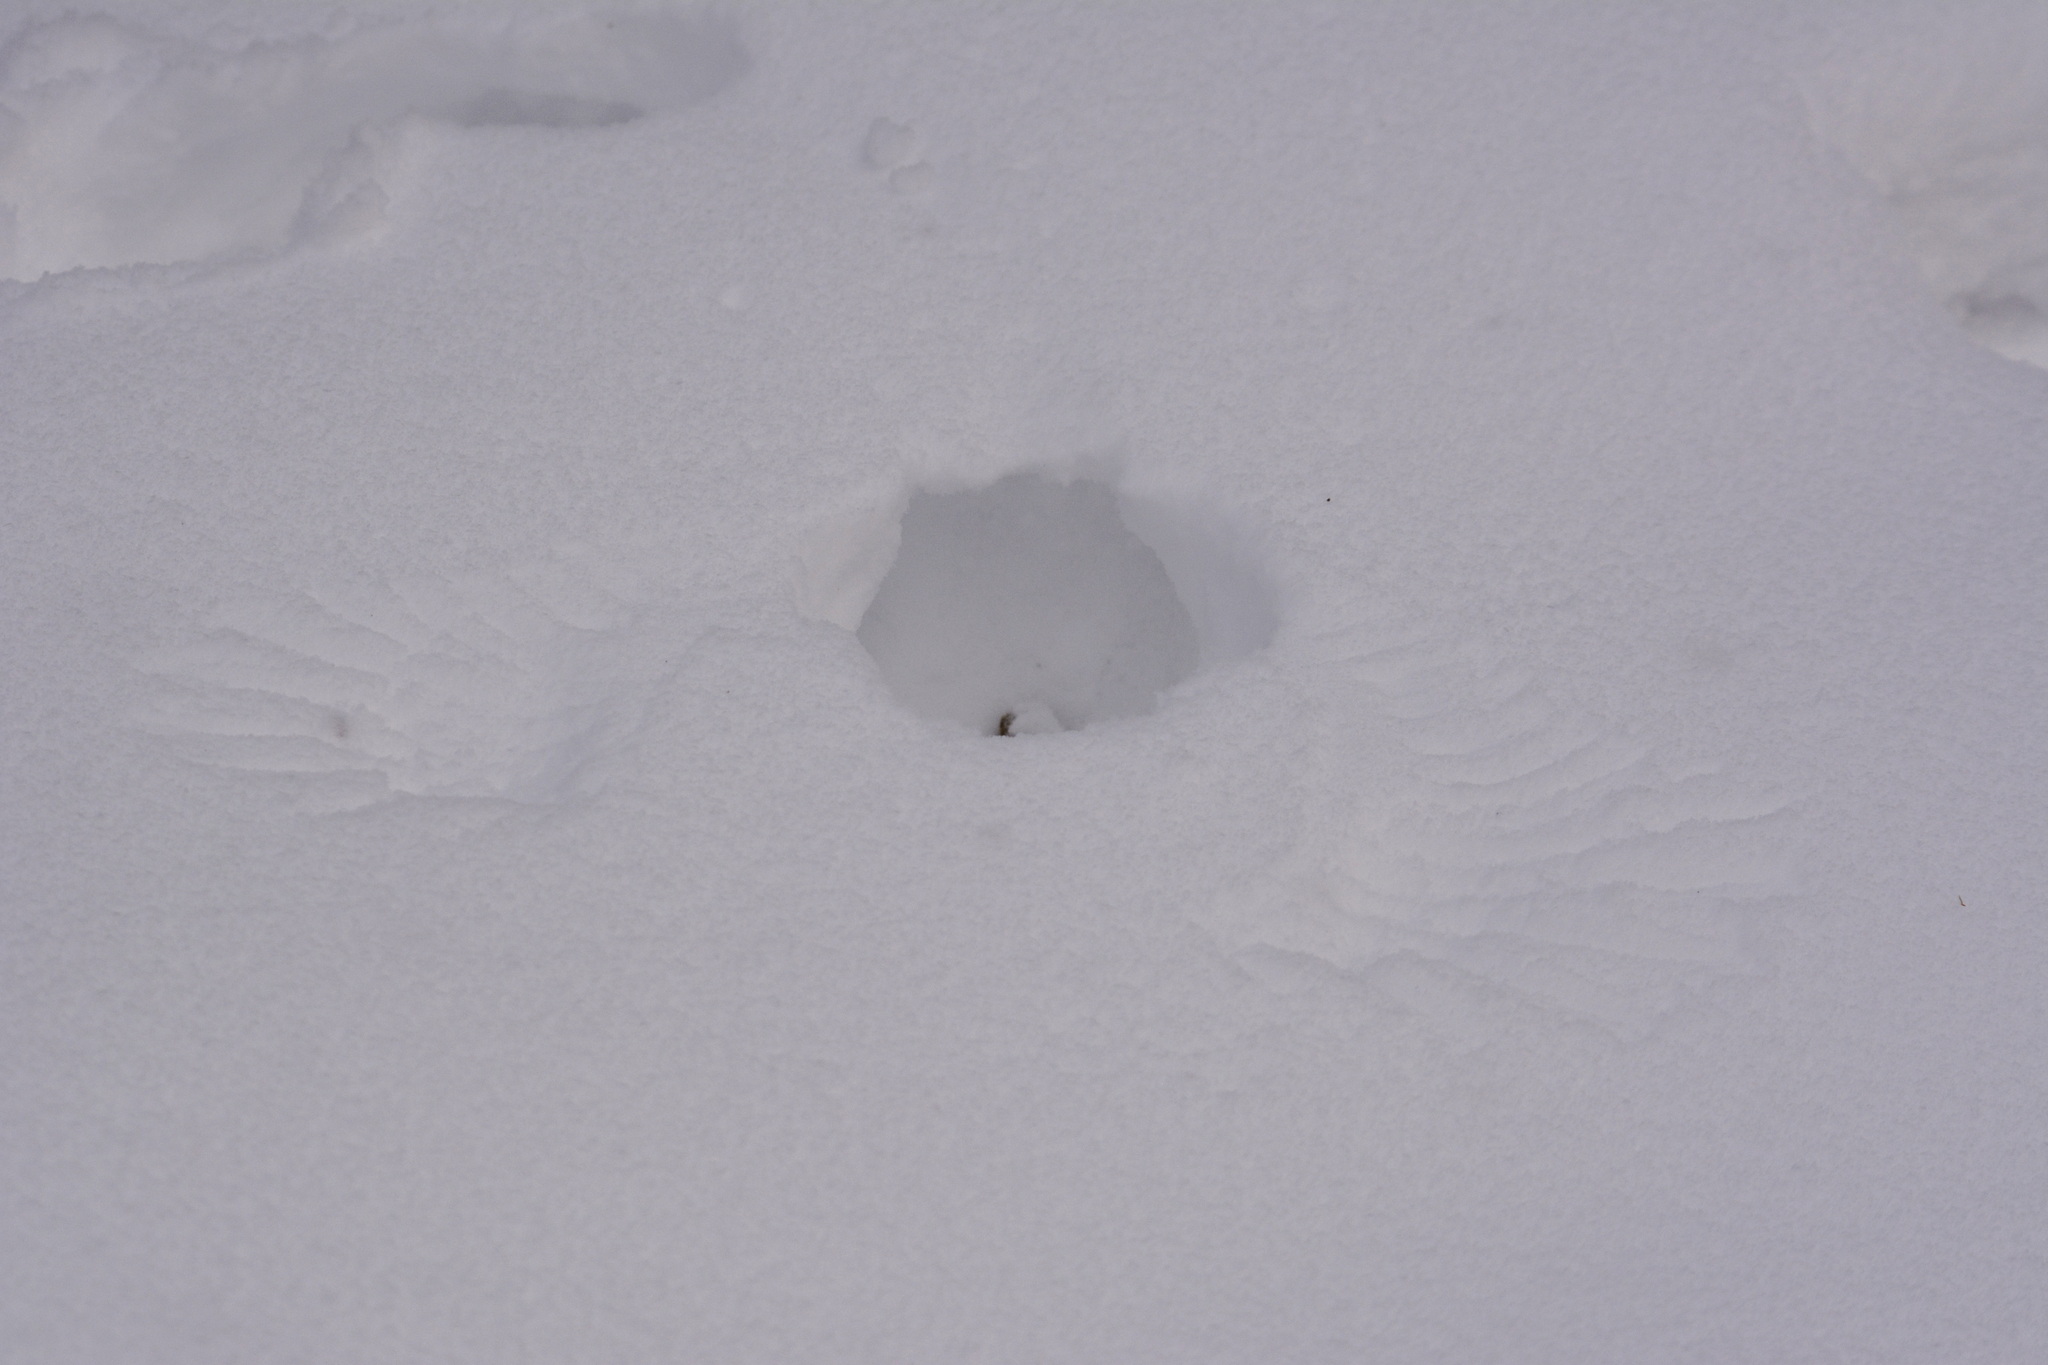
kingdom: Animalia
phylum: Chordata
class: Aves
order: Galliformes
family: Phasianidae
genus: Perdix
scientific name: Perdix perdix
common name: Grey partridge
